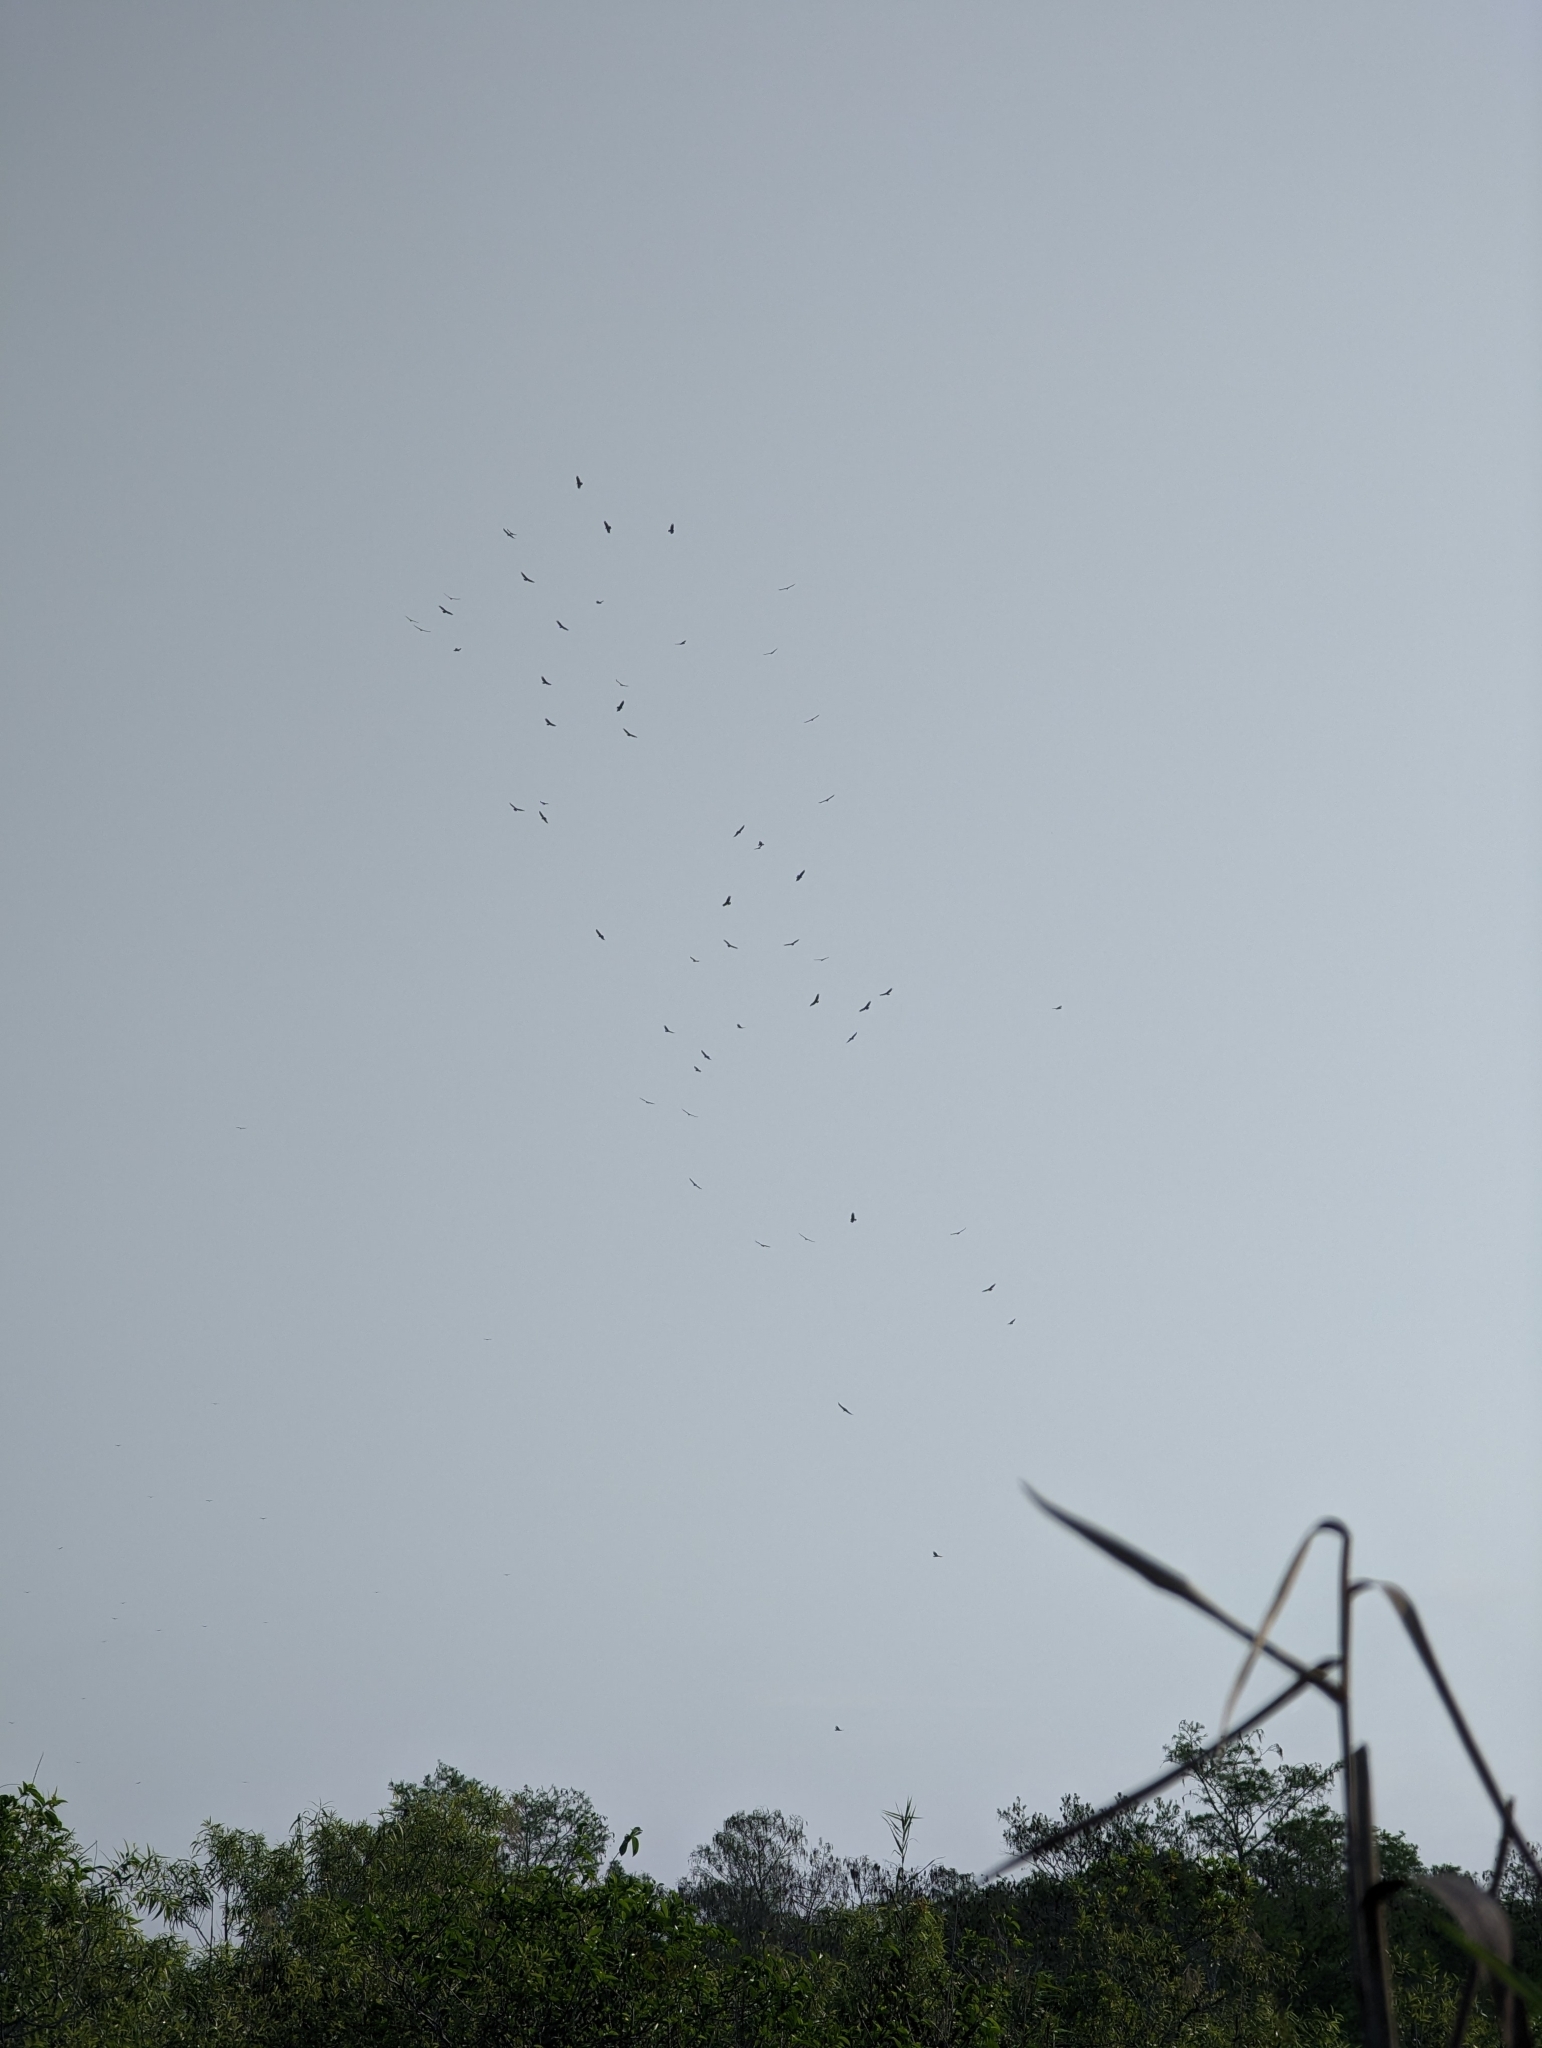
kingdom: Animalia
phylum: Chordata
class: Aves
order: Accipitriformes
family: Cathartidae
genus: Cathartes
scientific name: Cathartes aura
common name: Turkey vulture
